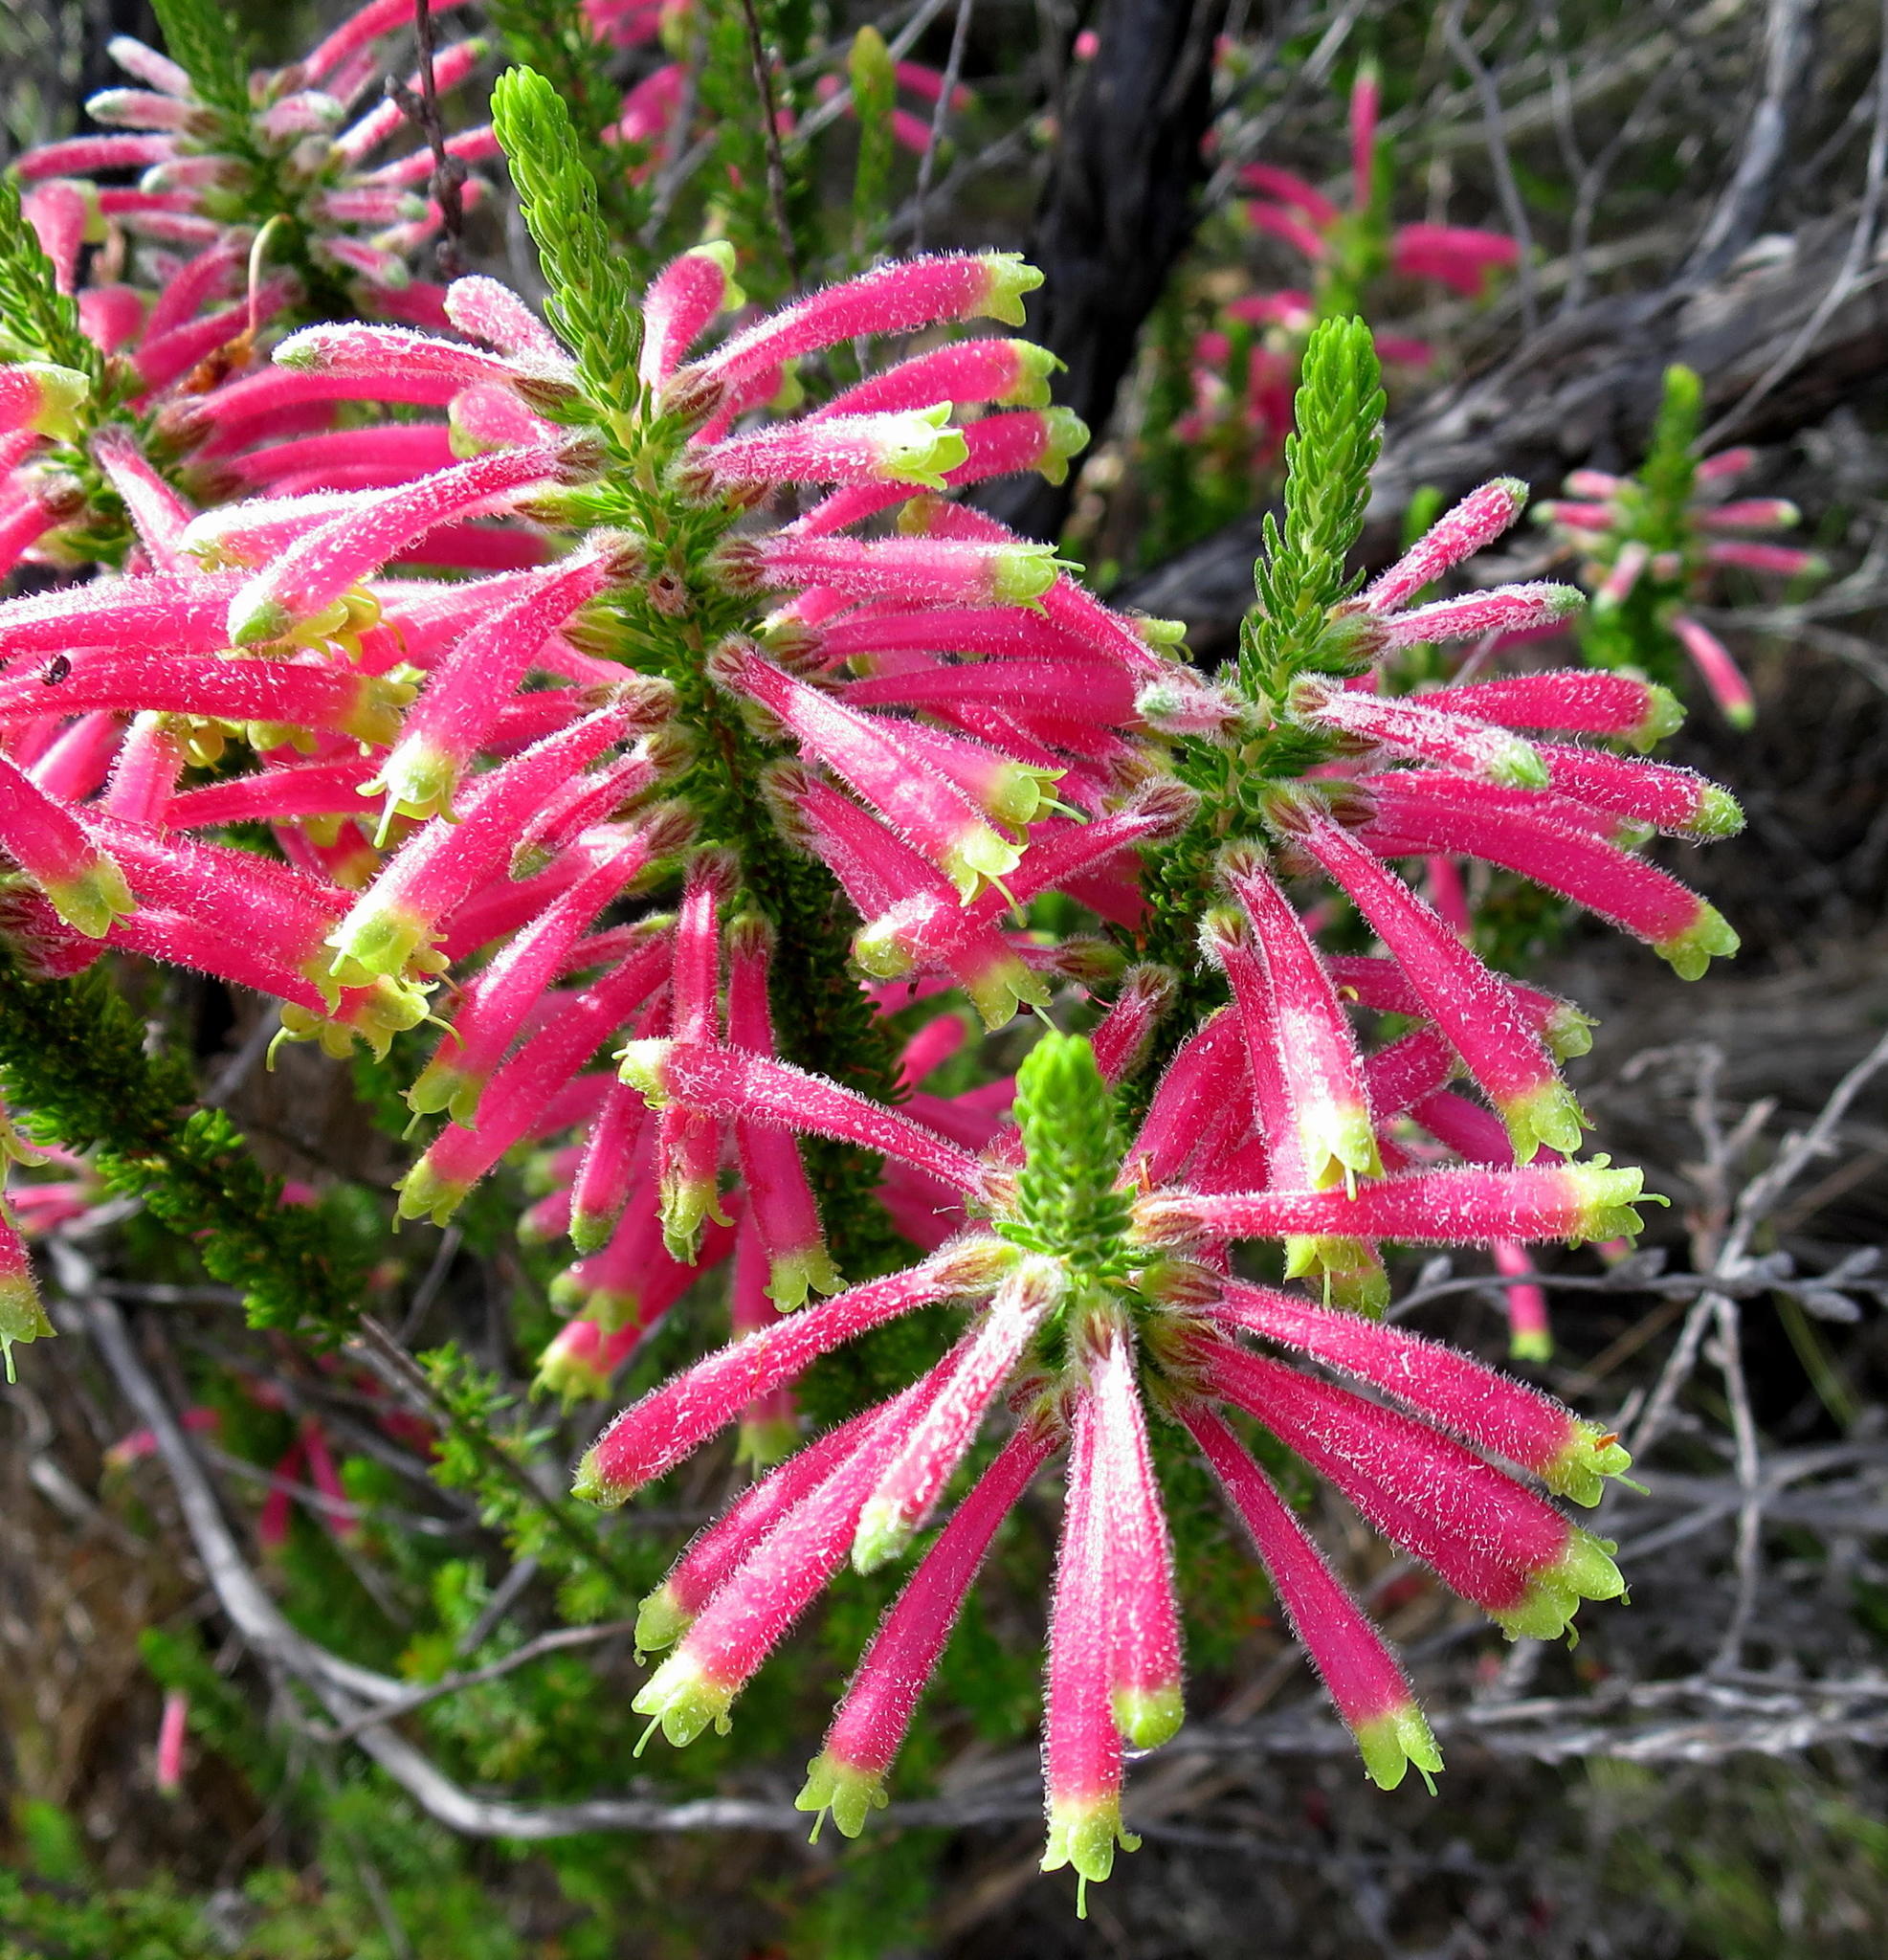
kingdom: Plantae
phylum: Tracheophyta
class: Magnoliopsida
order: Ericales
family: Ericaceae
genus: Erica
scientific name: Erica densifolia
